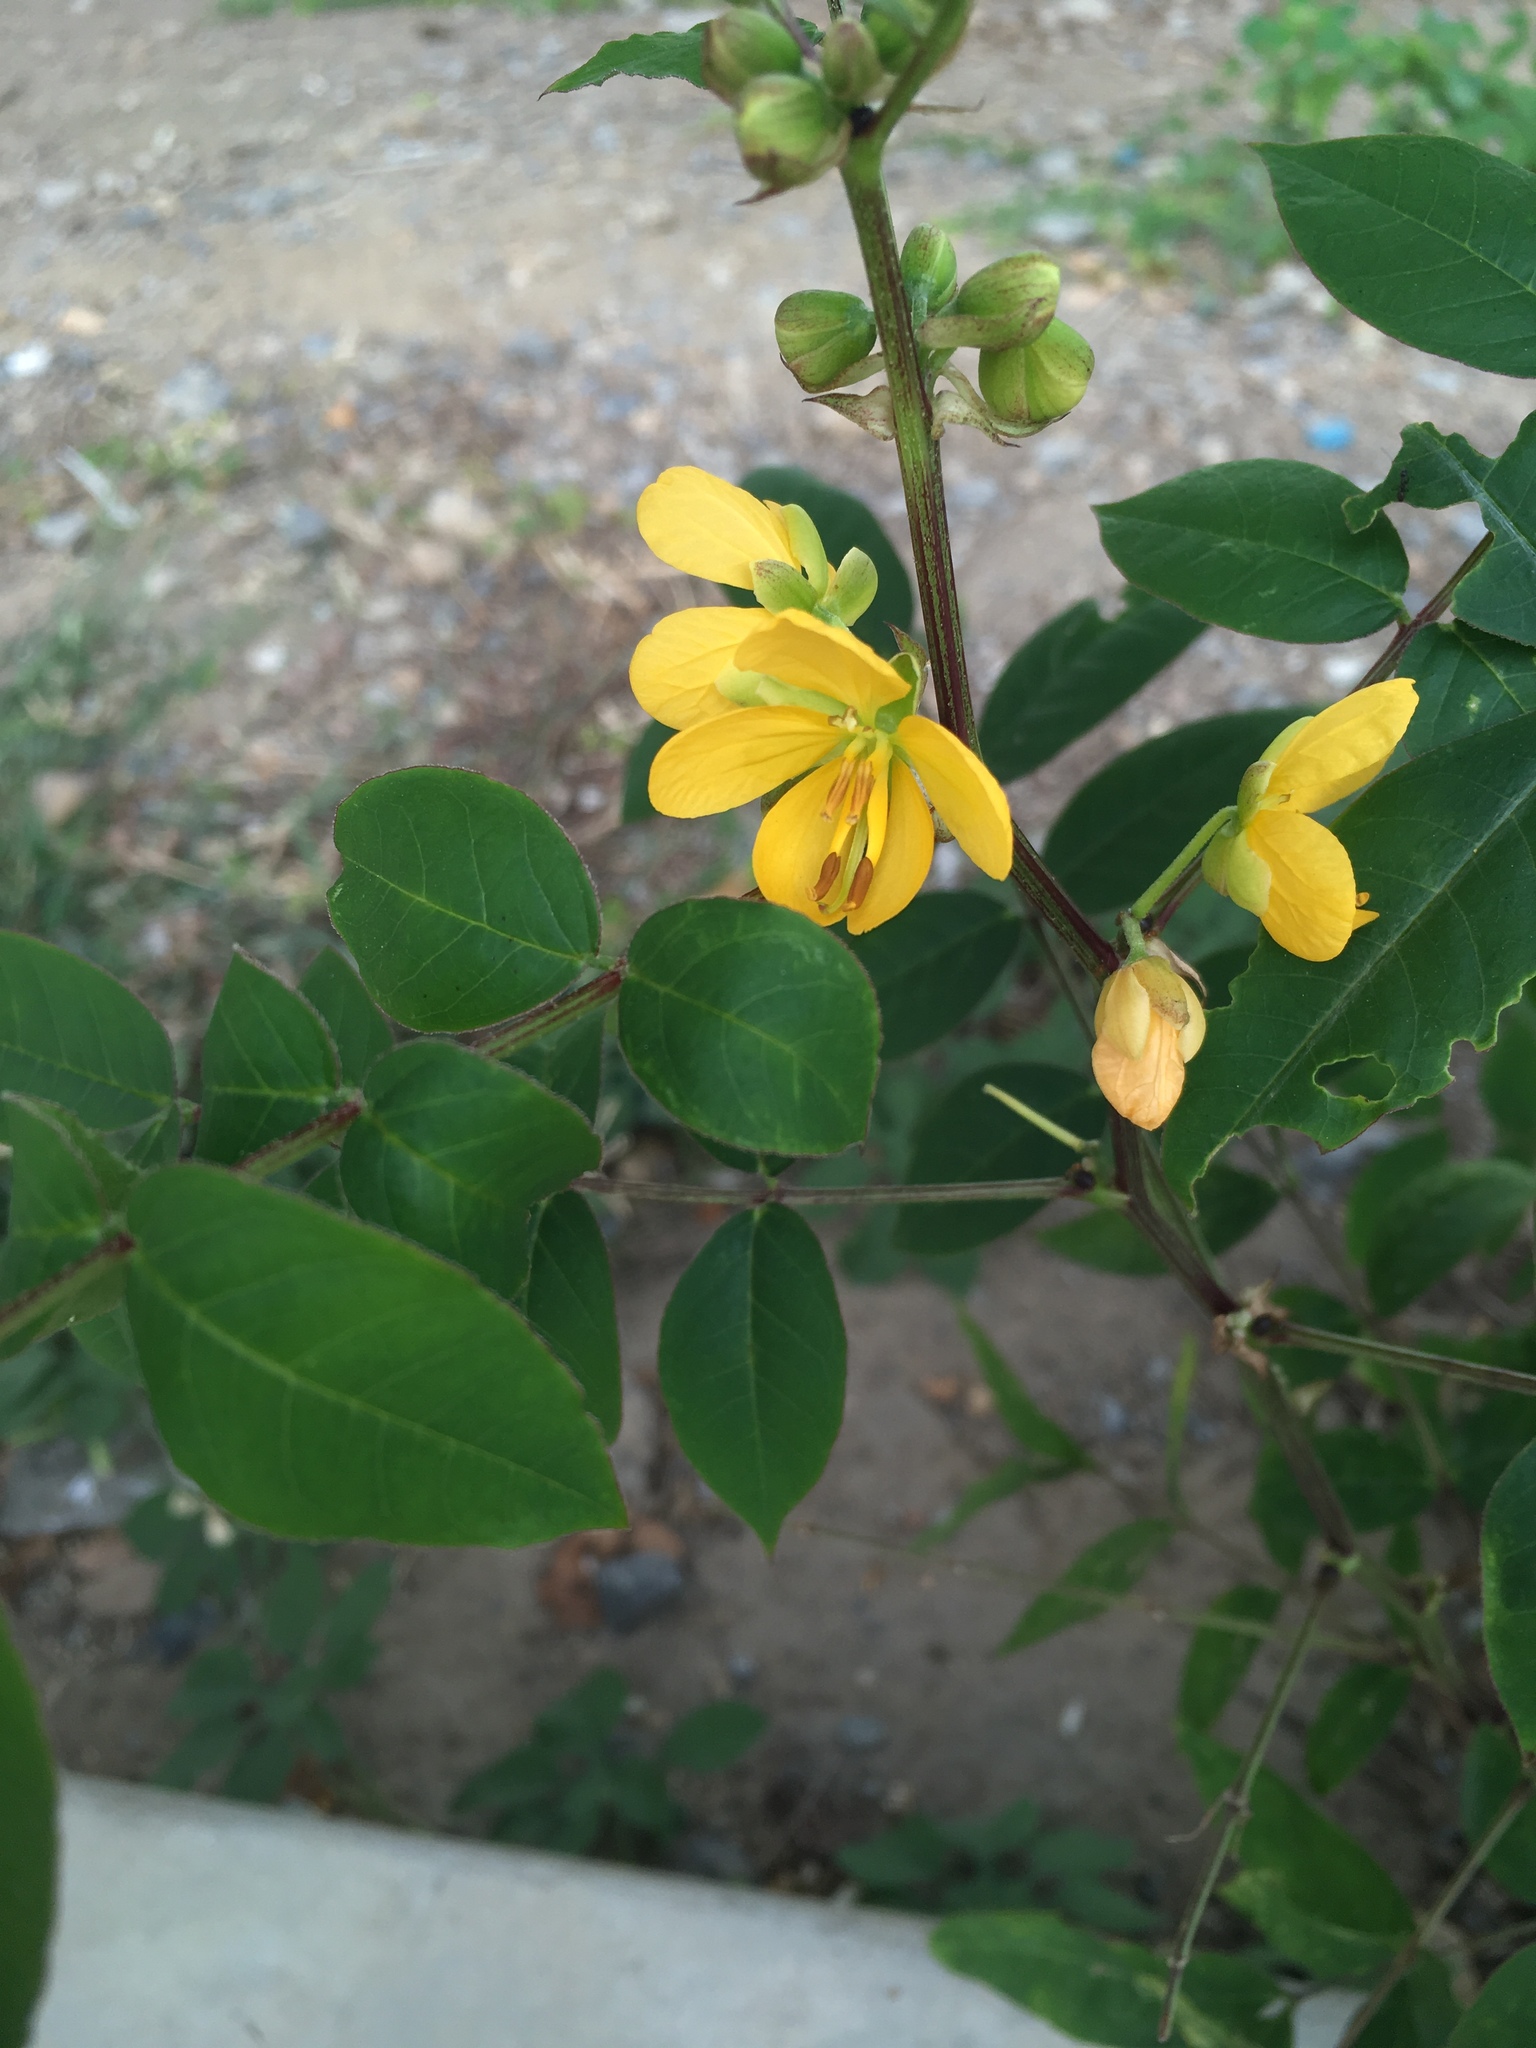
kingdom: Plantae
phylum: Tracheophyta
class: Magnoliopsida
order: Fabales
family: Fabaceae
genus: Senna
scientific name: Senna occidentalis
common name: Septicweed
